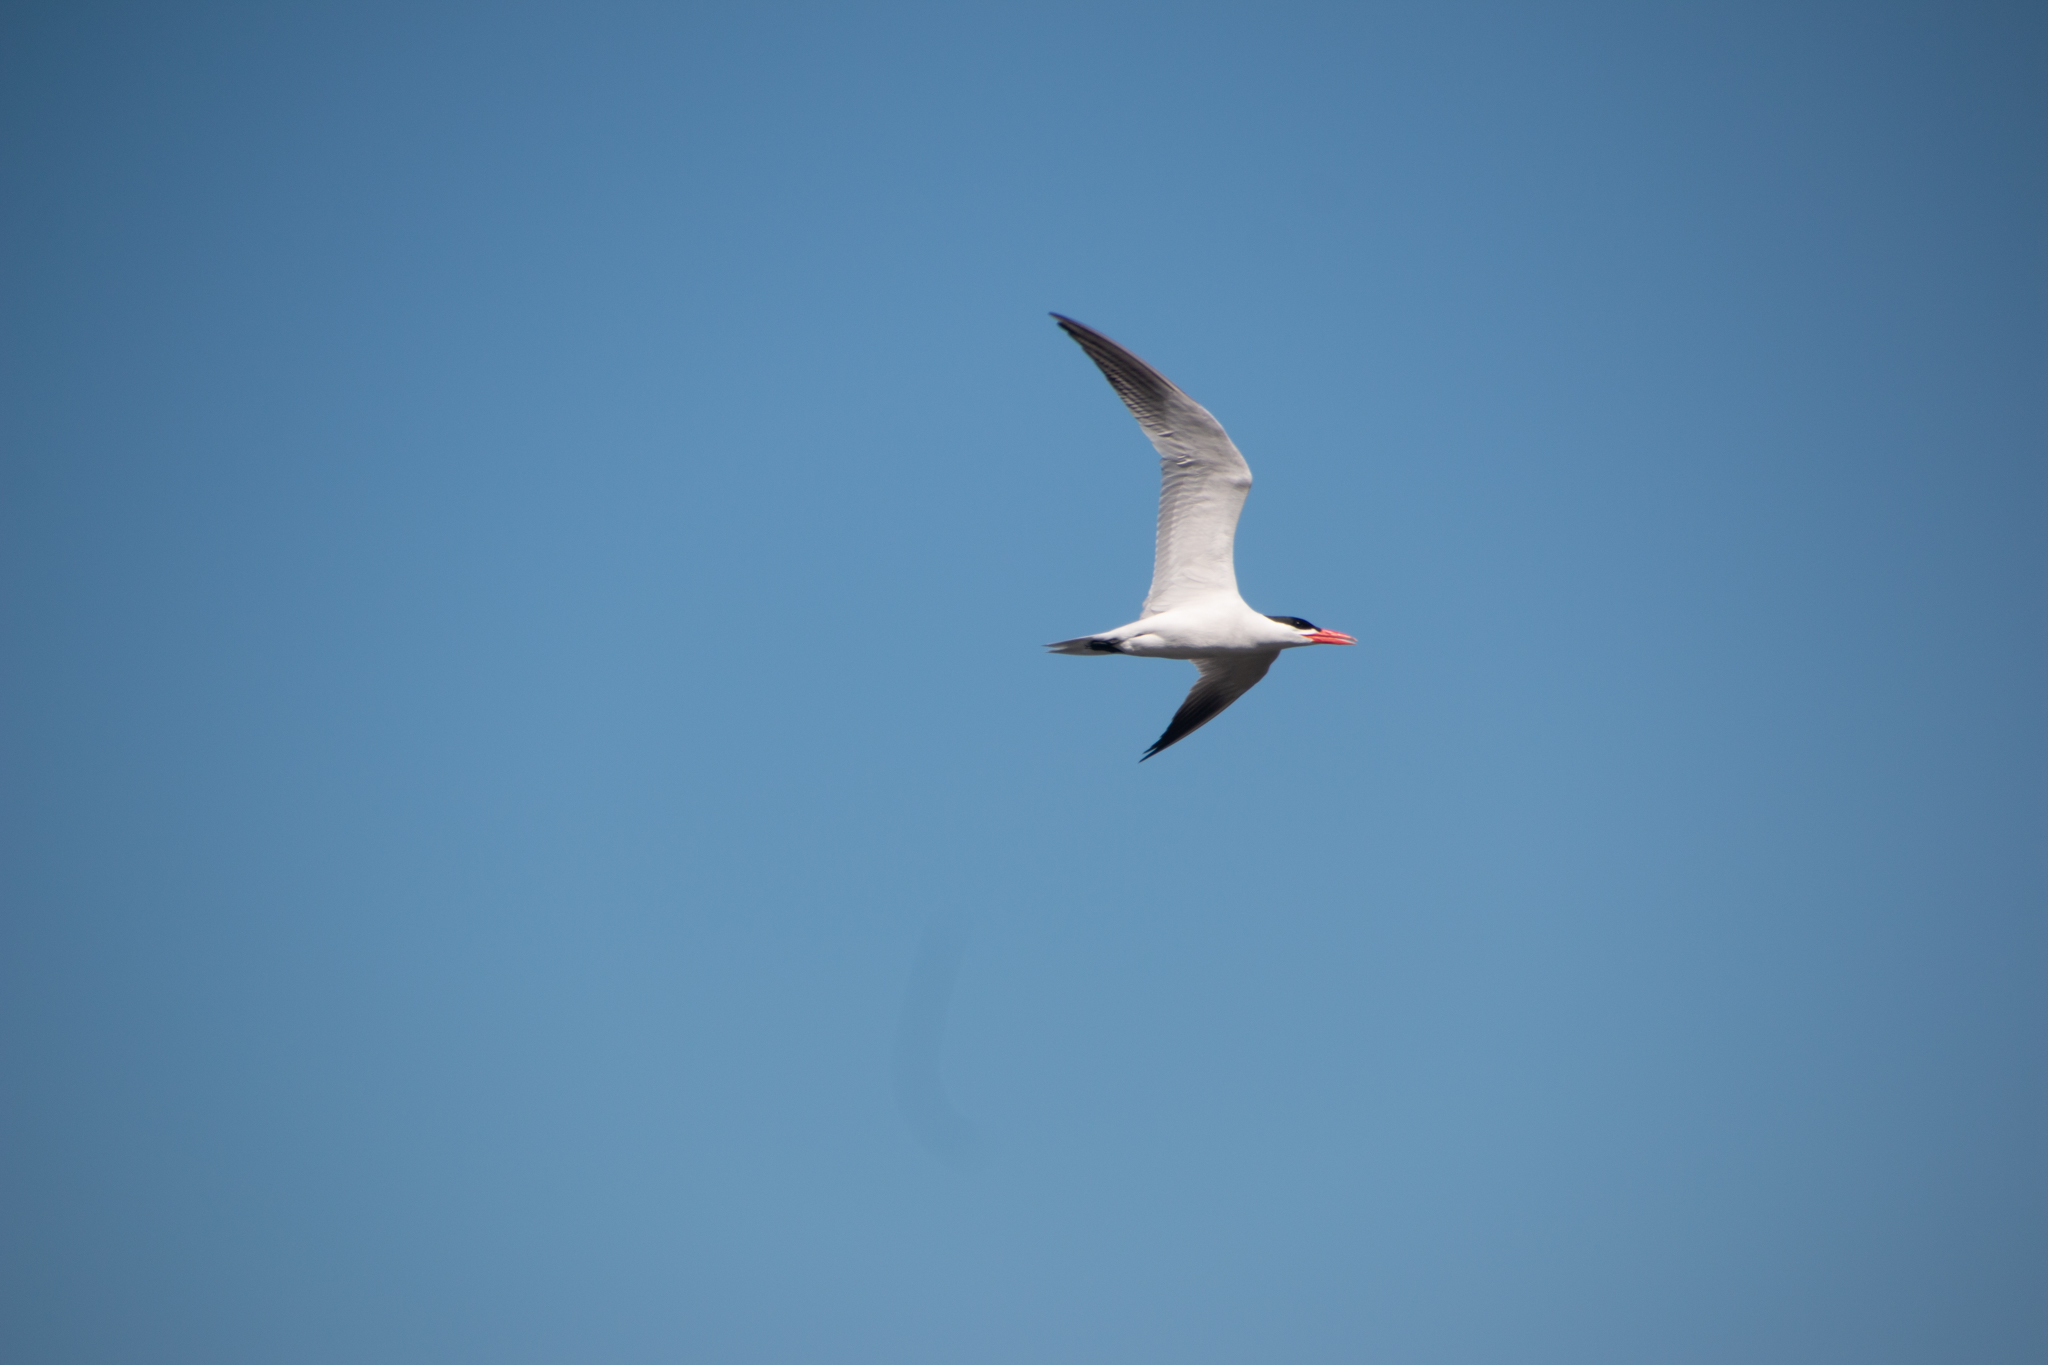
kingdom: Animalia
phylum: Chordata
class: Aves
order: Charadriiformes
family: Laridae
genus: Hydroprogne
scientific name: Hydroprogne caspia
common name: Caspian tern
